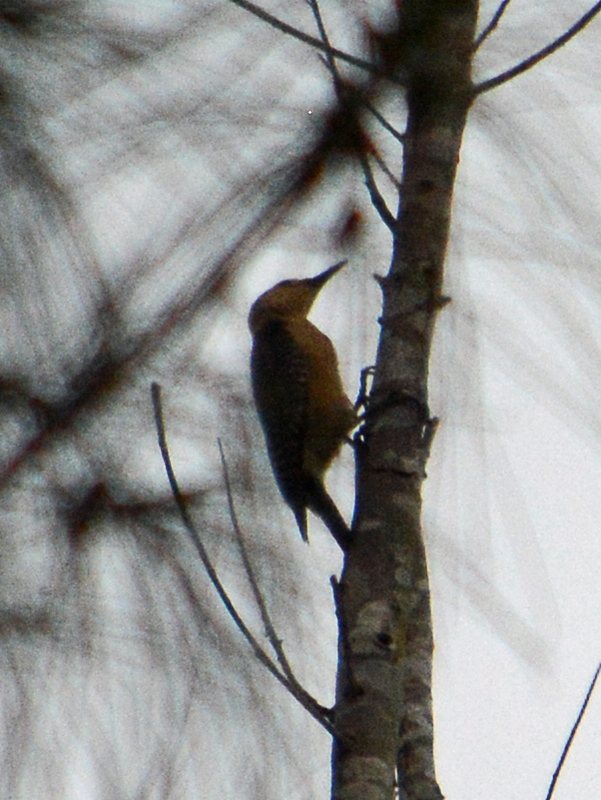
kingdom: Animalia
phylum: Chordata
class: Aves
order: Piciformes
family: Picidae
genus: Melanerpes
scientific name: Melanerpes aurifrons
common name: Golden-fronted woodpecker
